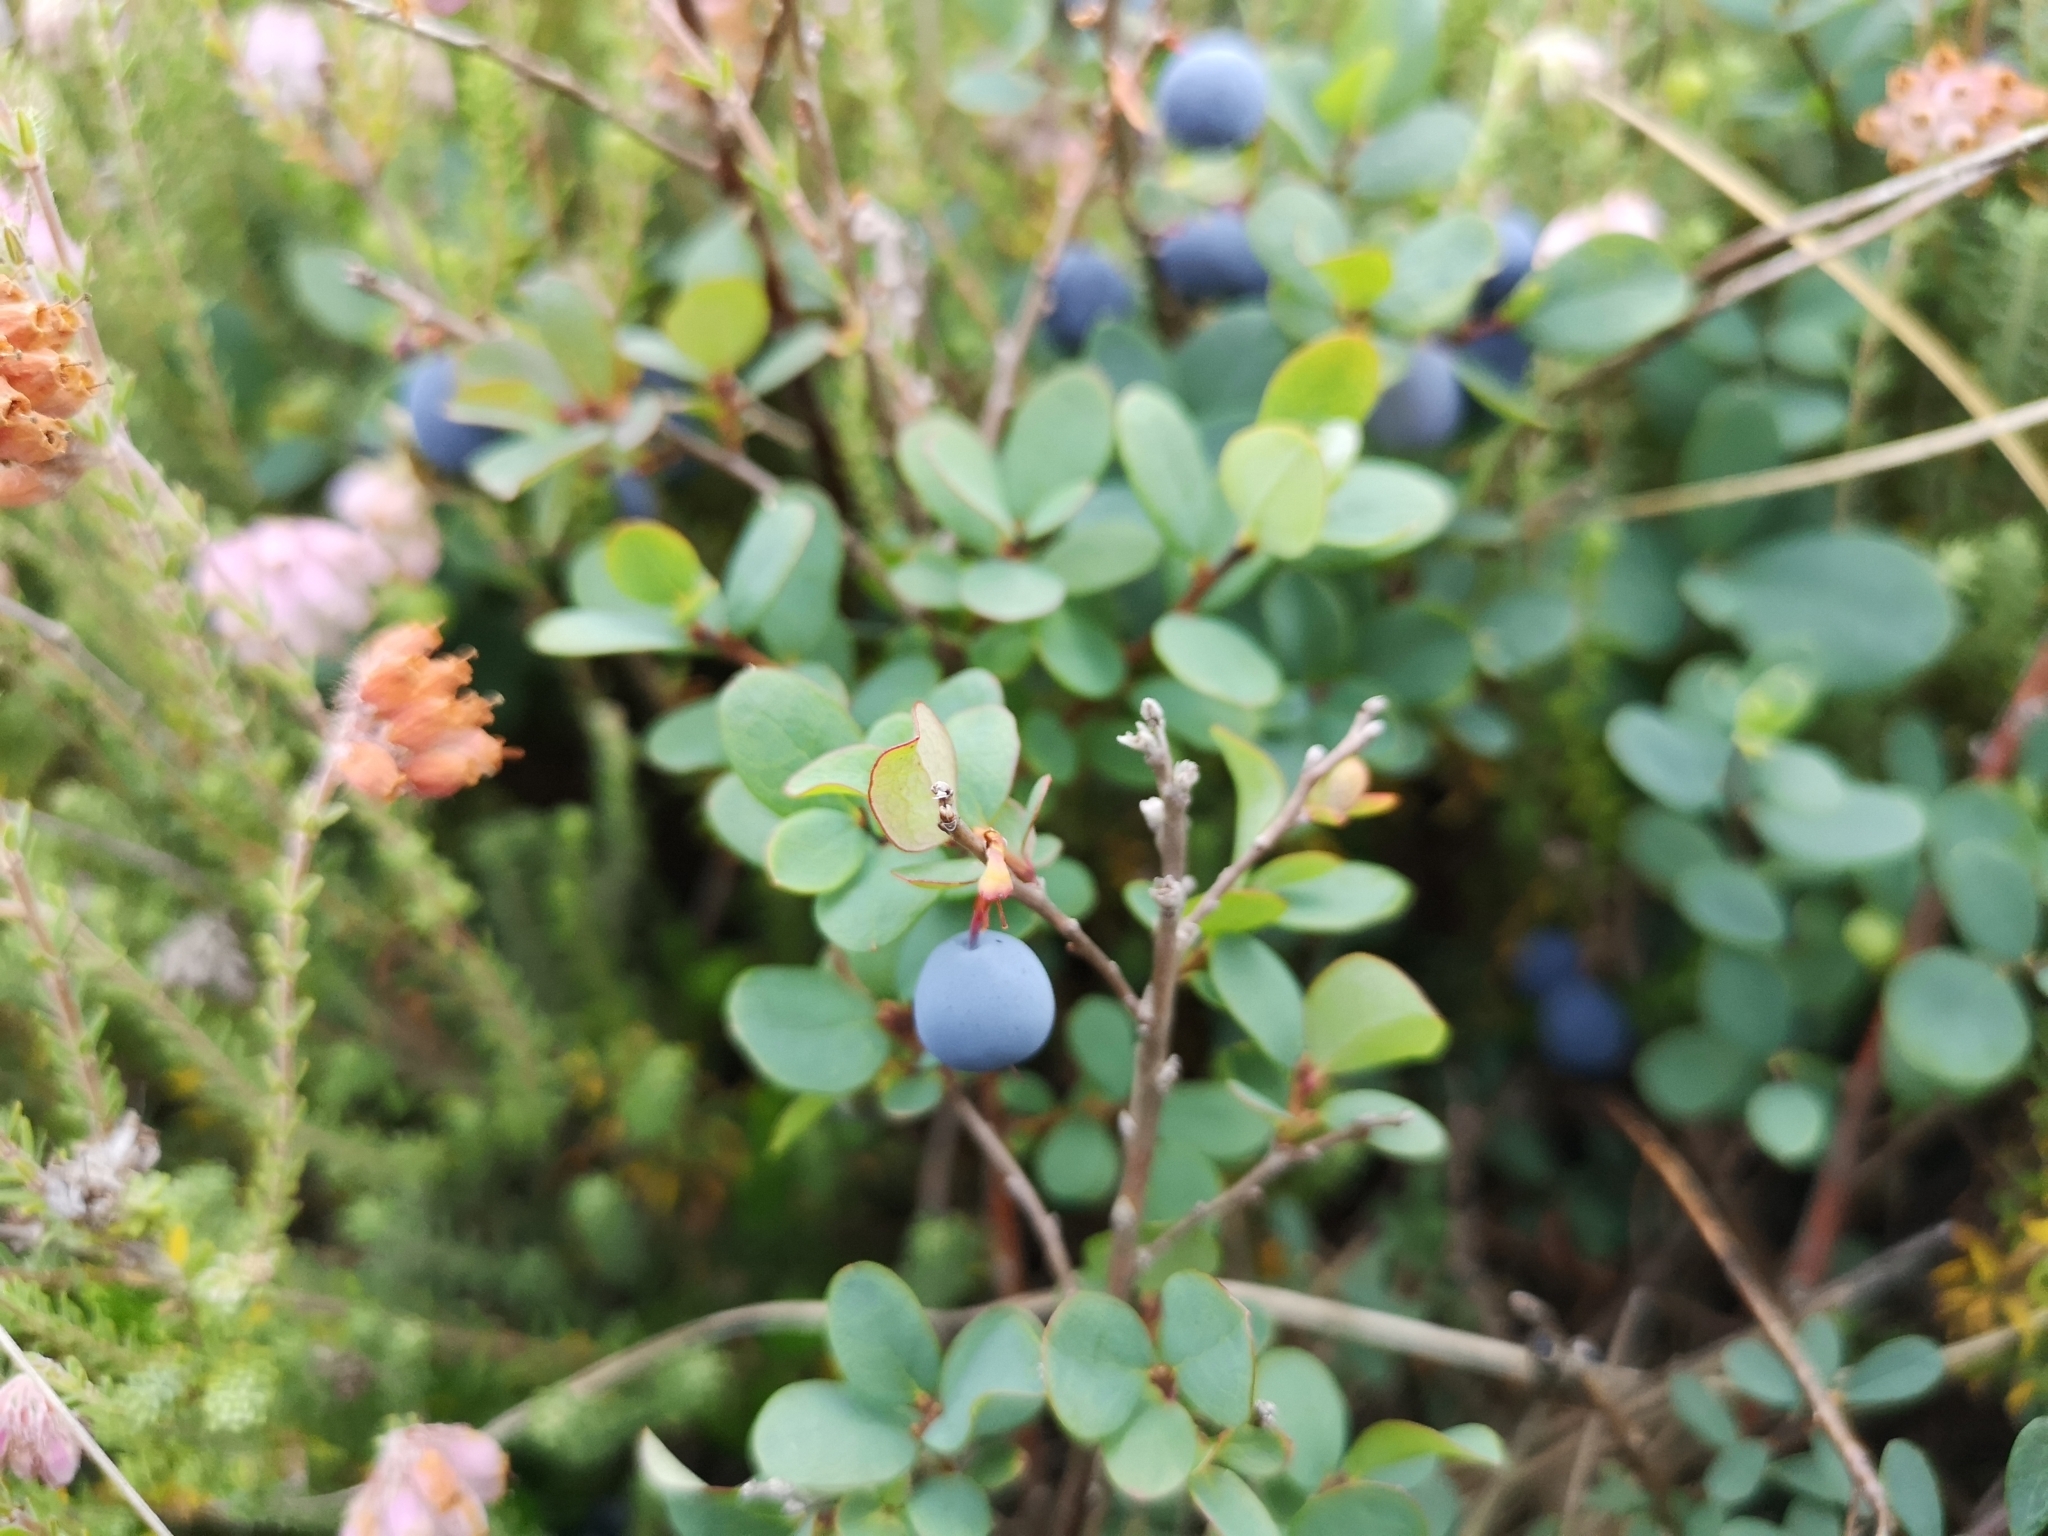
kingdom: Plantae
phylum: Tracheophyta
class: Magnoliopsida
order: Ericales
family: Ericaceae
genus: Vaccinium
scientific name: Vaccinium uliginosum
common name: Bog bilberry
